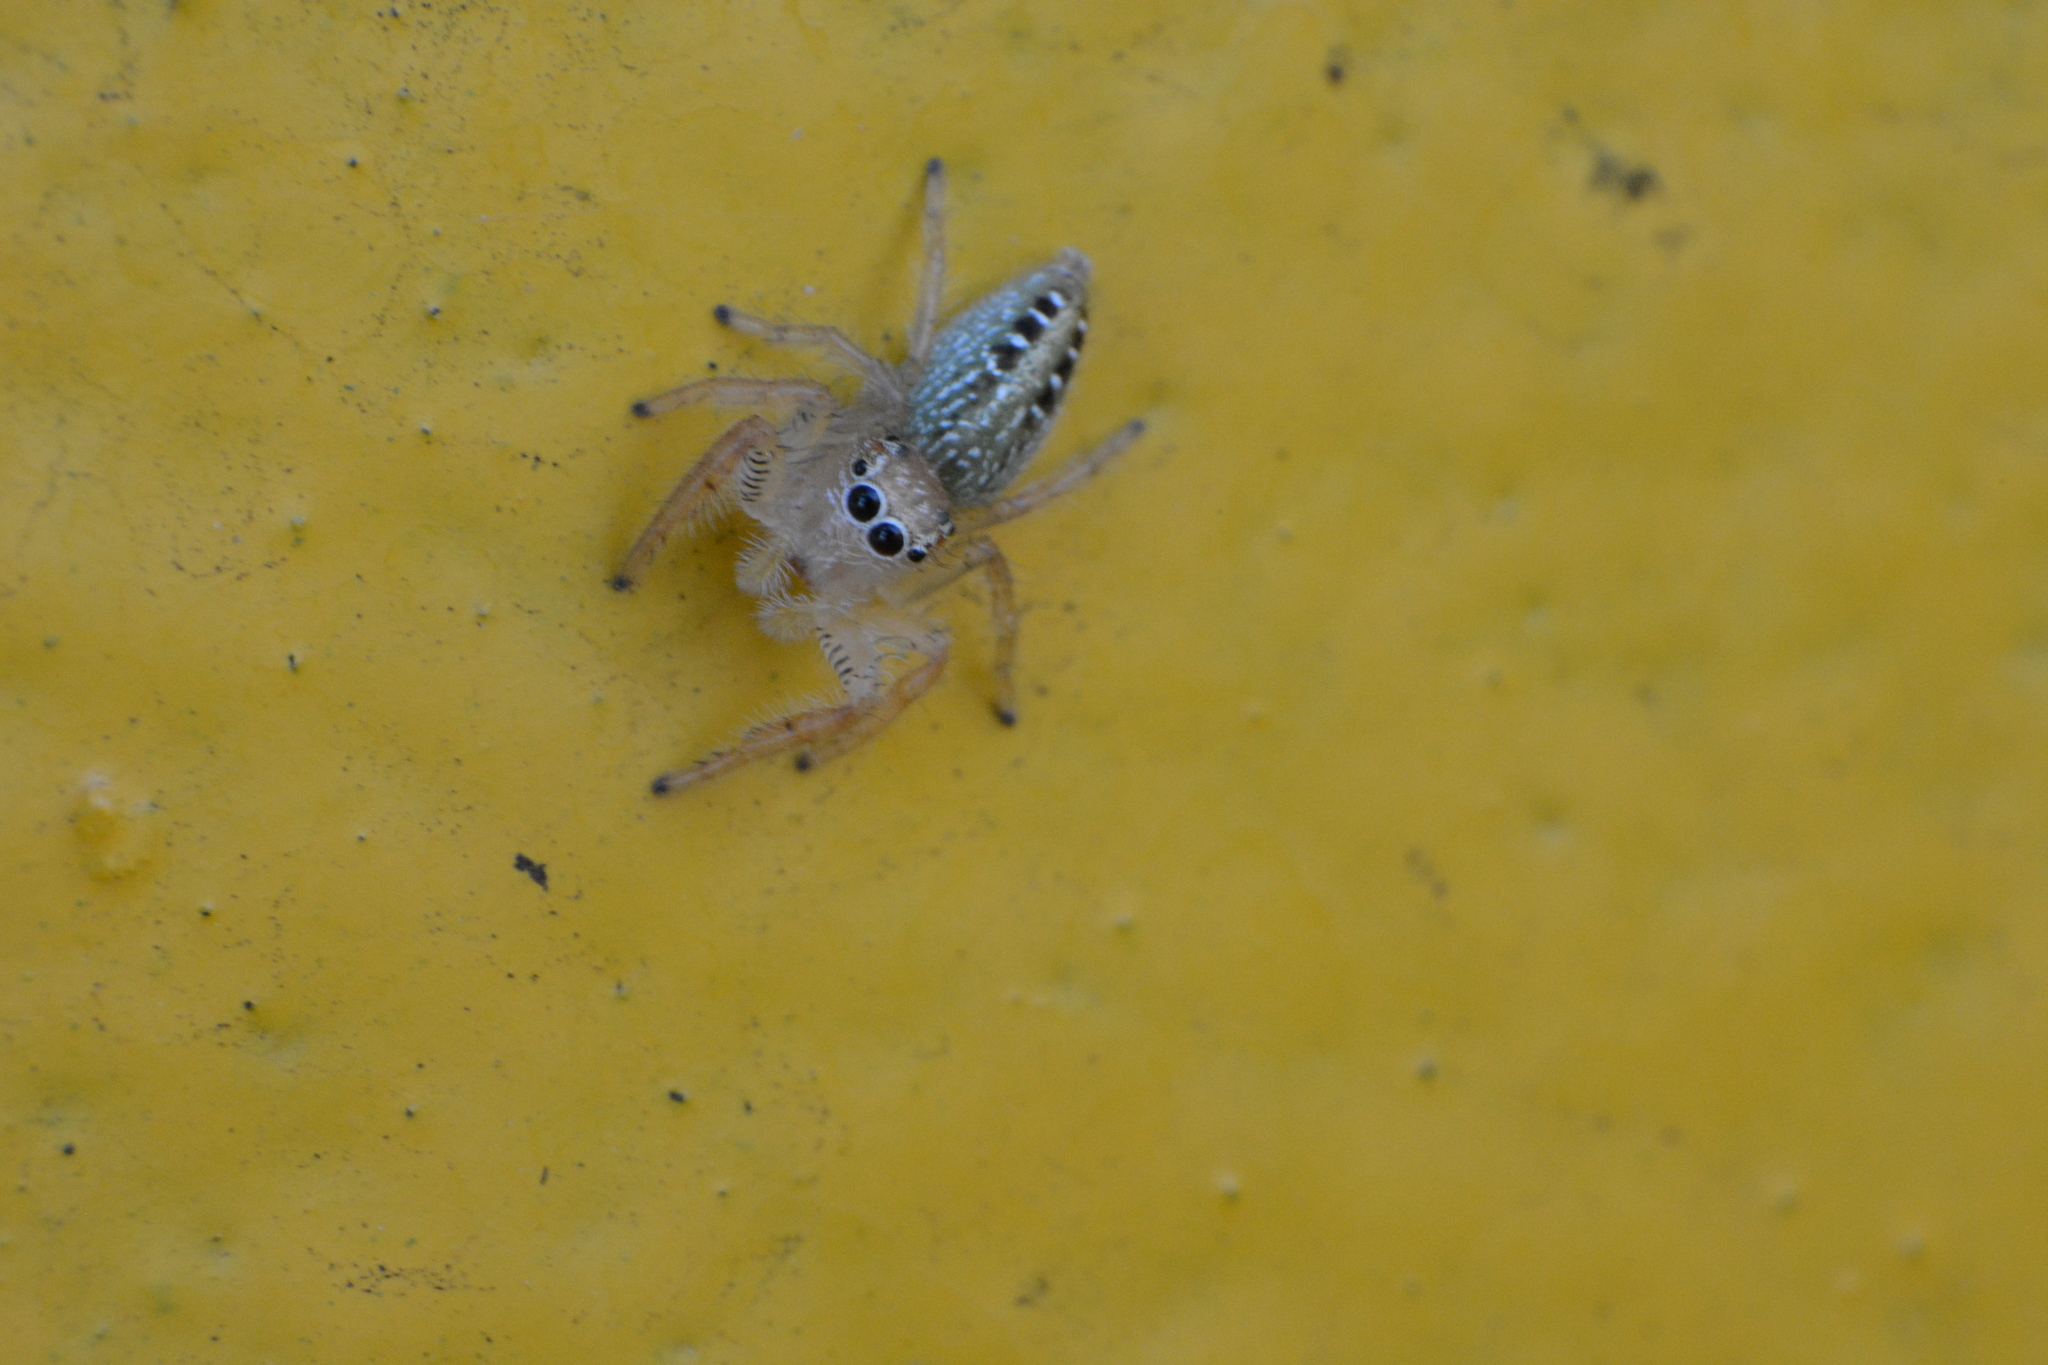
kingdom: Animalia
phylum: Arthropoda
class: Arachnida
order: Araneae
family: Salticidae
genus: Thyene
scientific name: Thyene ogdeni
